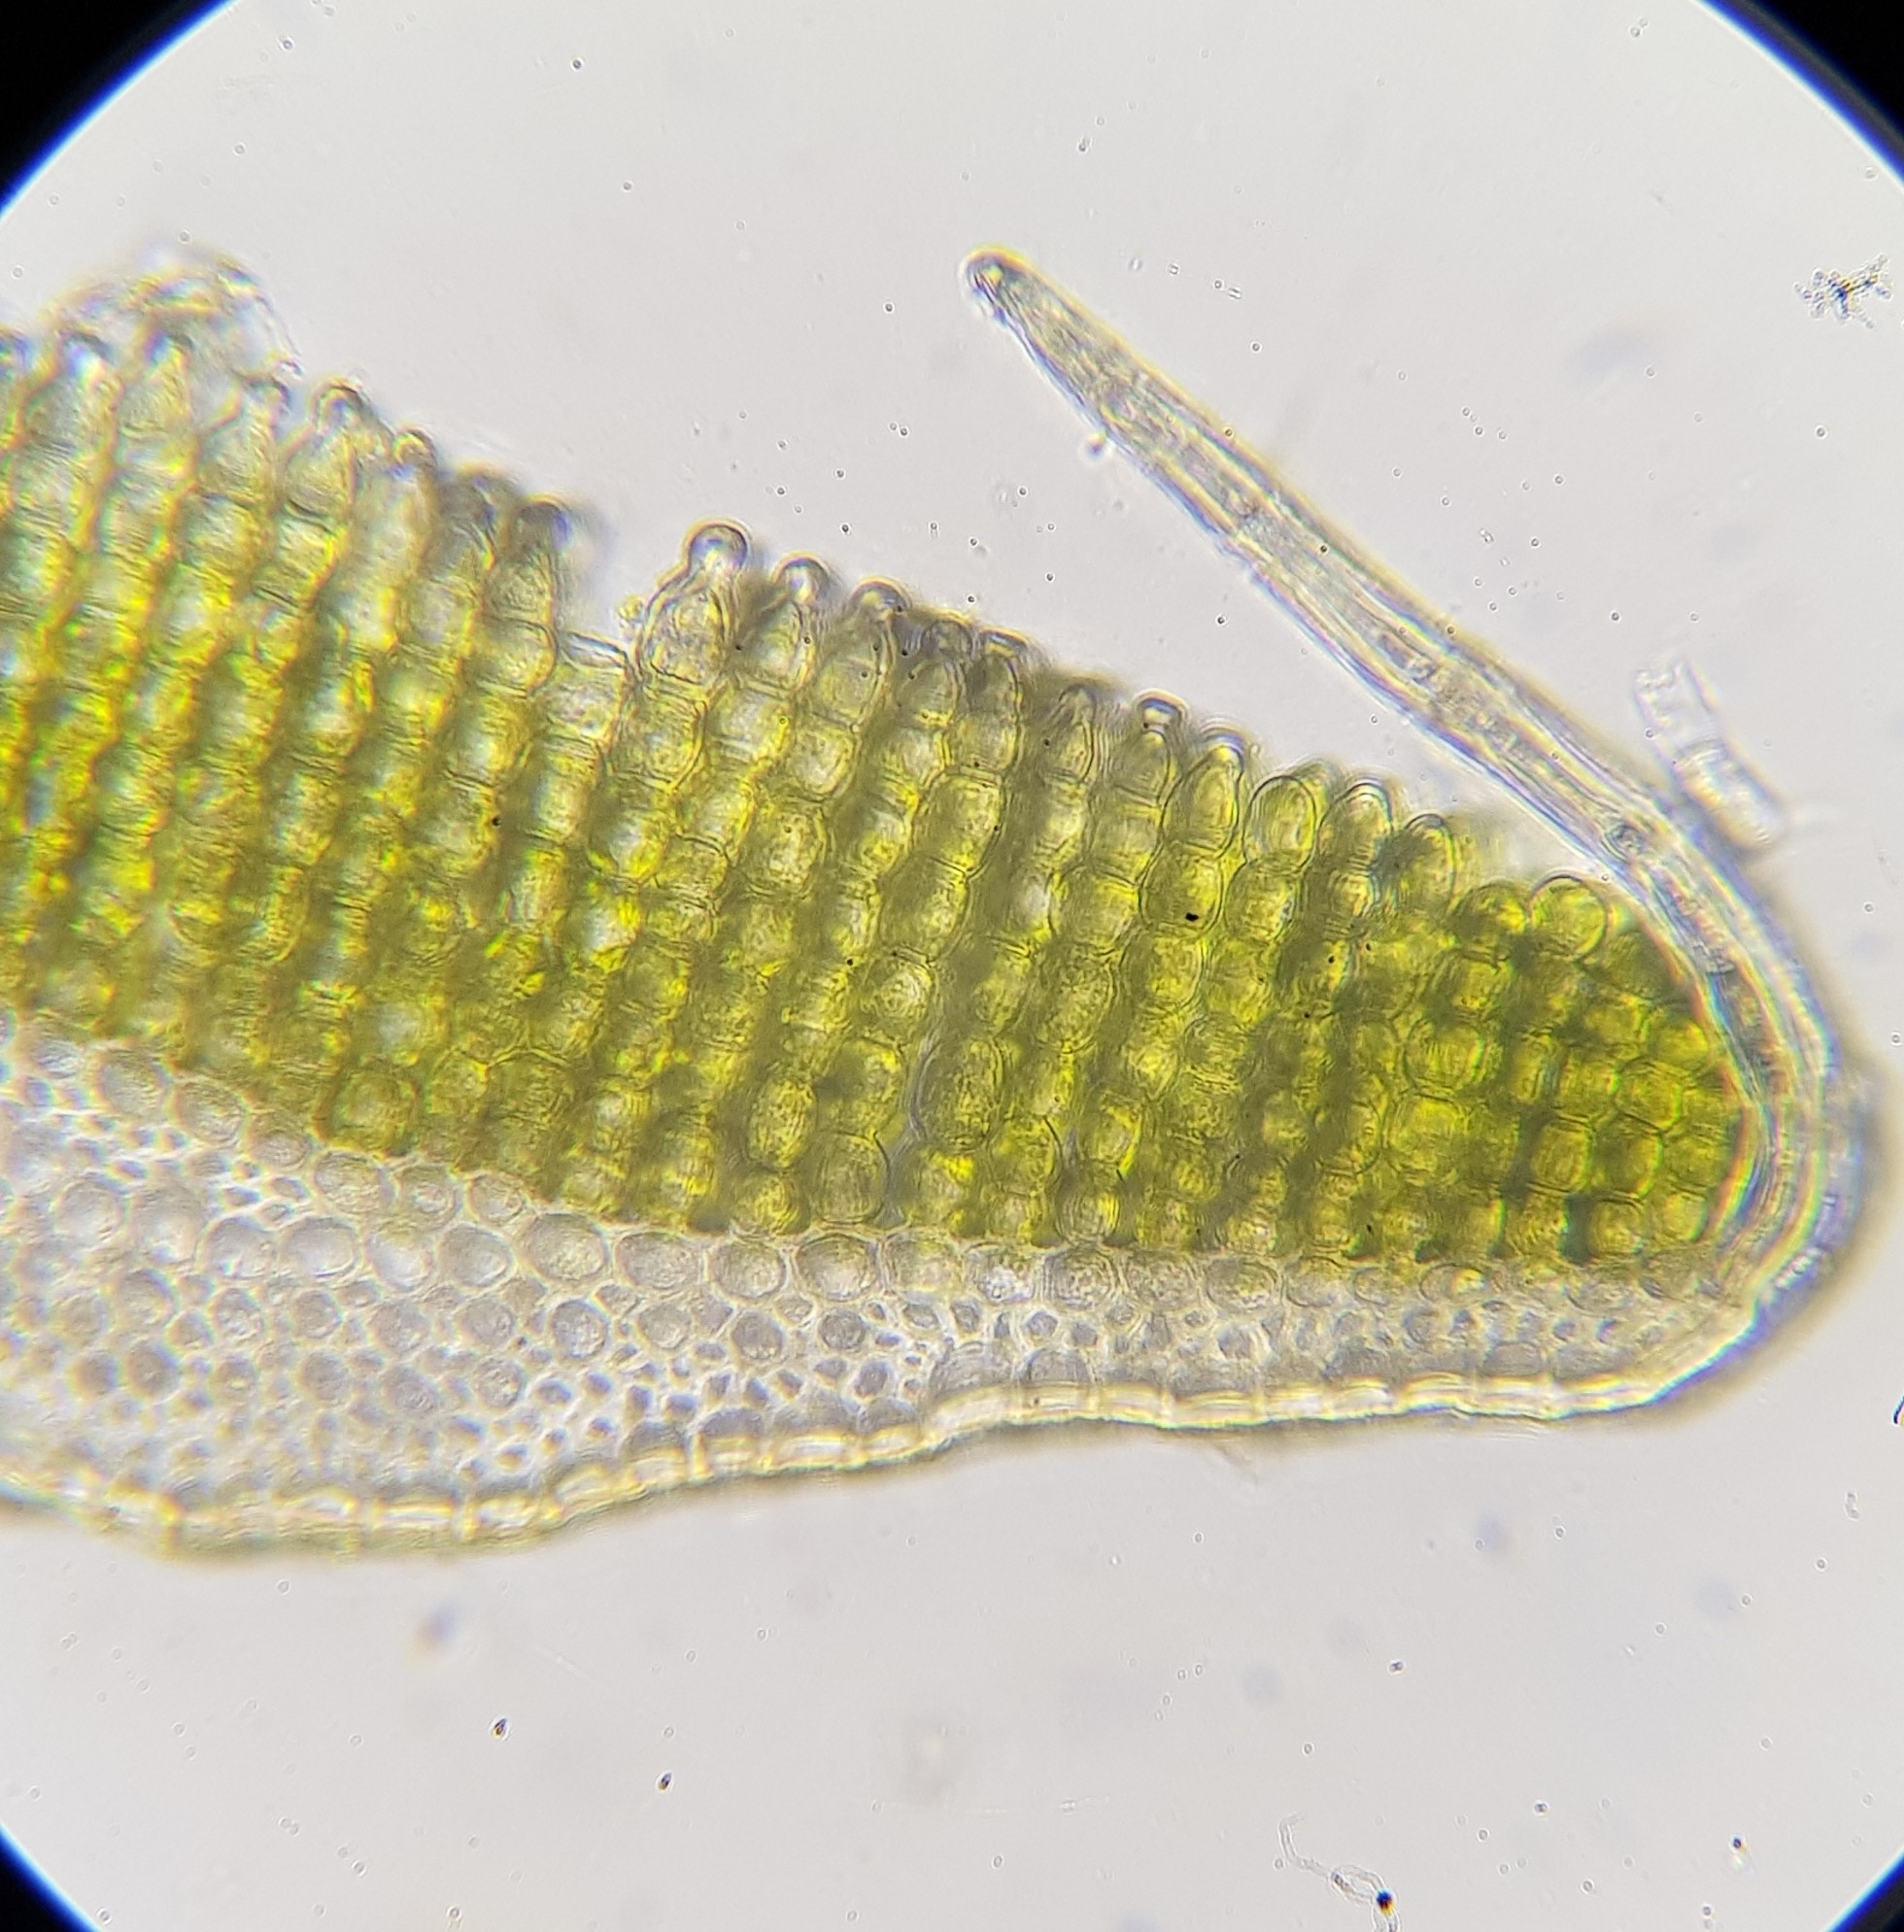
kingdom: Plantae
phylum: Bryophyta
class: Polytrichopsida
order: Polytrichales
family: Polytrichaceae
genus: Polytrichum
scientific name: Polytrichum juniperinum
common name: Juniper haircap moss
